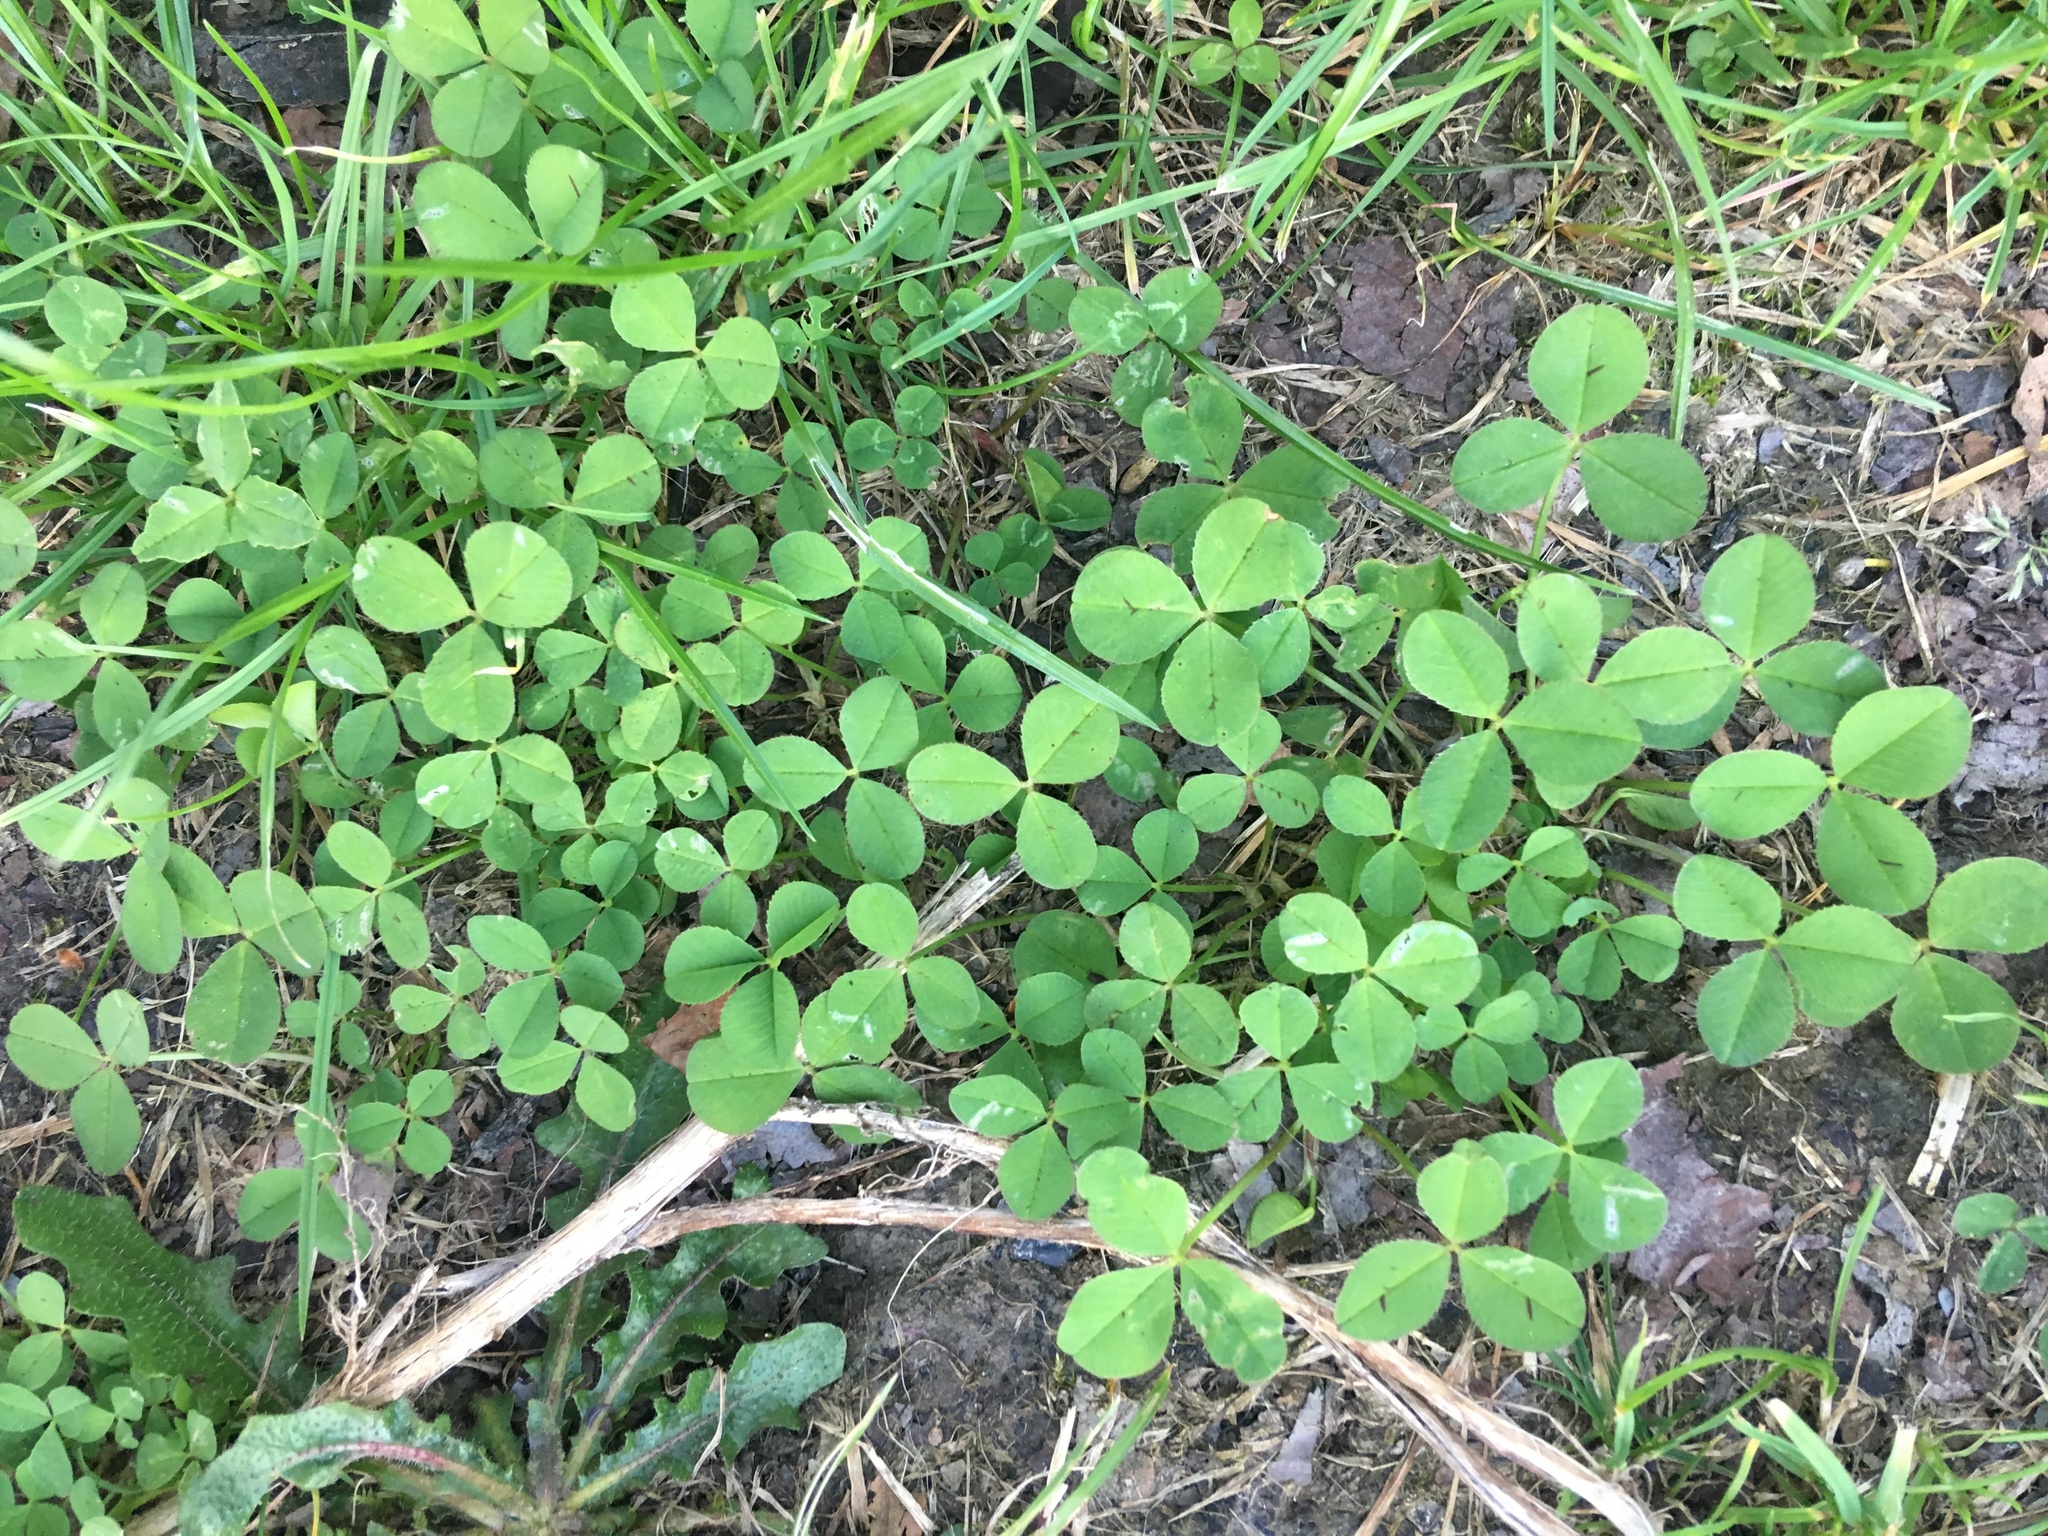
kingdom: Plantae
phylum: Tracheophyta
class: Magnoliopsida
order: Fabales
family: Fabaceae
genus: Trifolium
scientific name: Trifolium repens
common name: White clover
